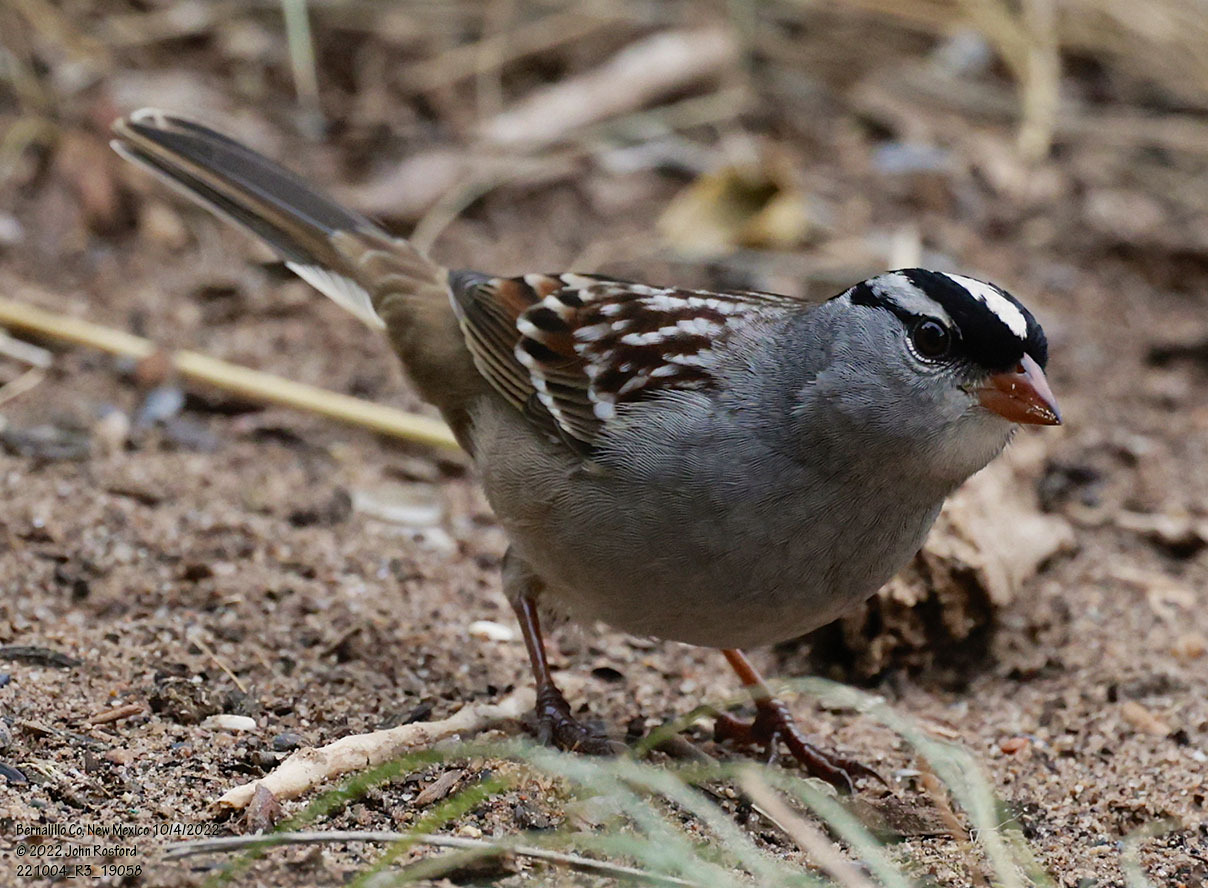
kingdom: Animalia
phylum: Chordata
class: Aves
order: Passeriformes
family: Passerellidae
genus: Zonotrichia
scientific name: Zonotrichia leucophrys
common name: White-crowned sparrow
